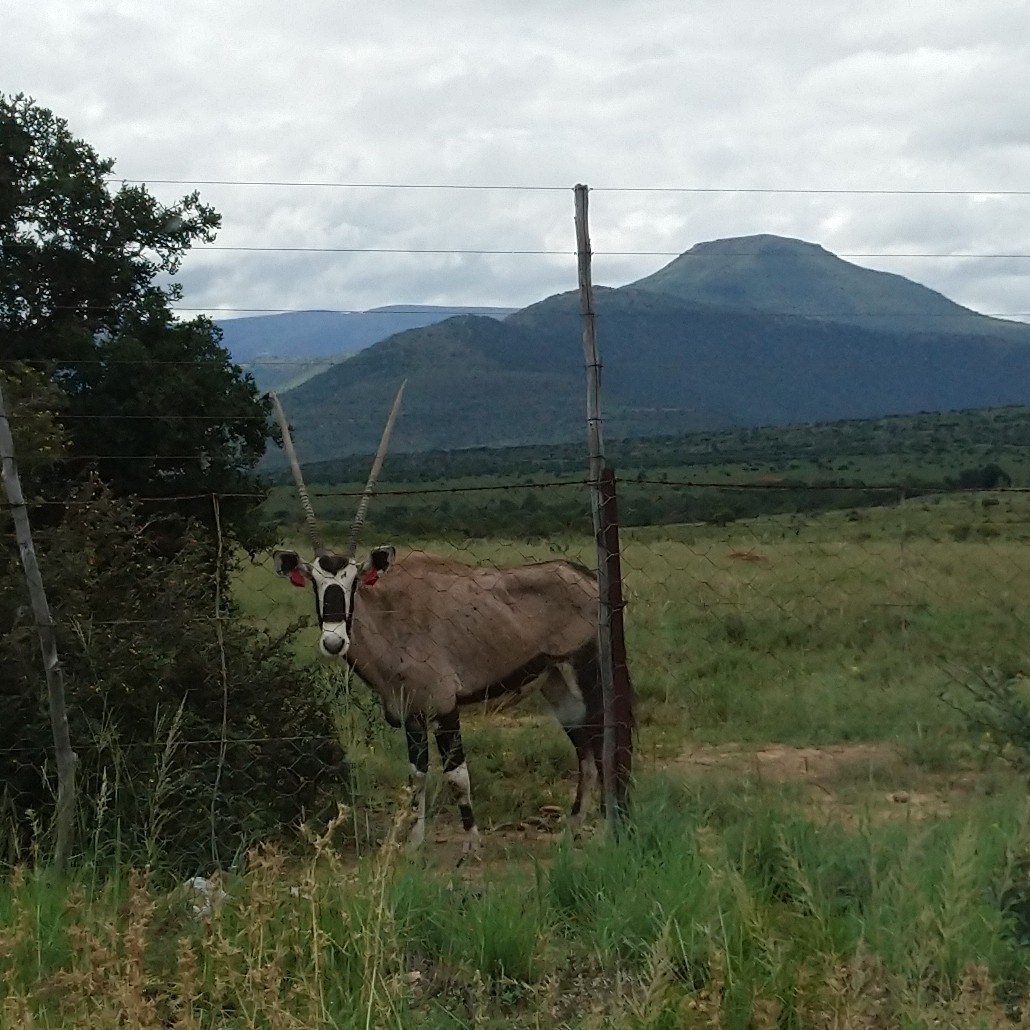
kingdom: Animalia
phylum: Chordata
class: Mammalia
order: Artiodactyla
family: Bovidae
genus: Oryx
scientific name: Oryx gazella
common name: Gemsbok
